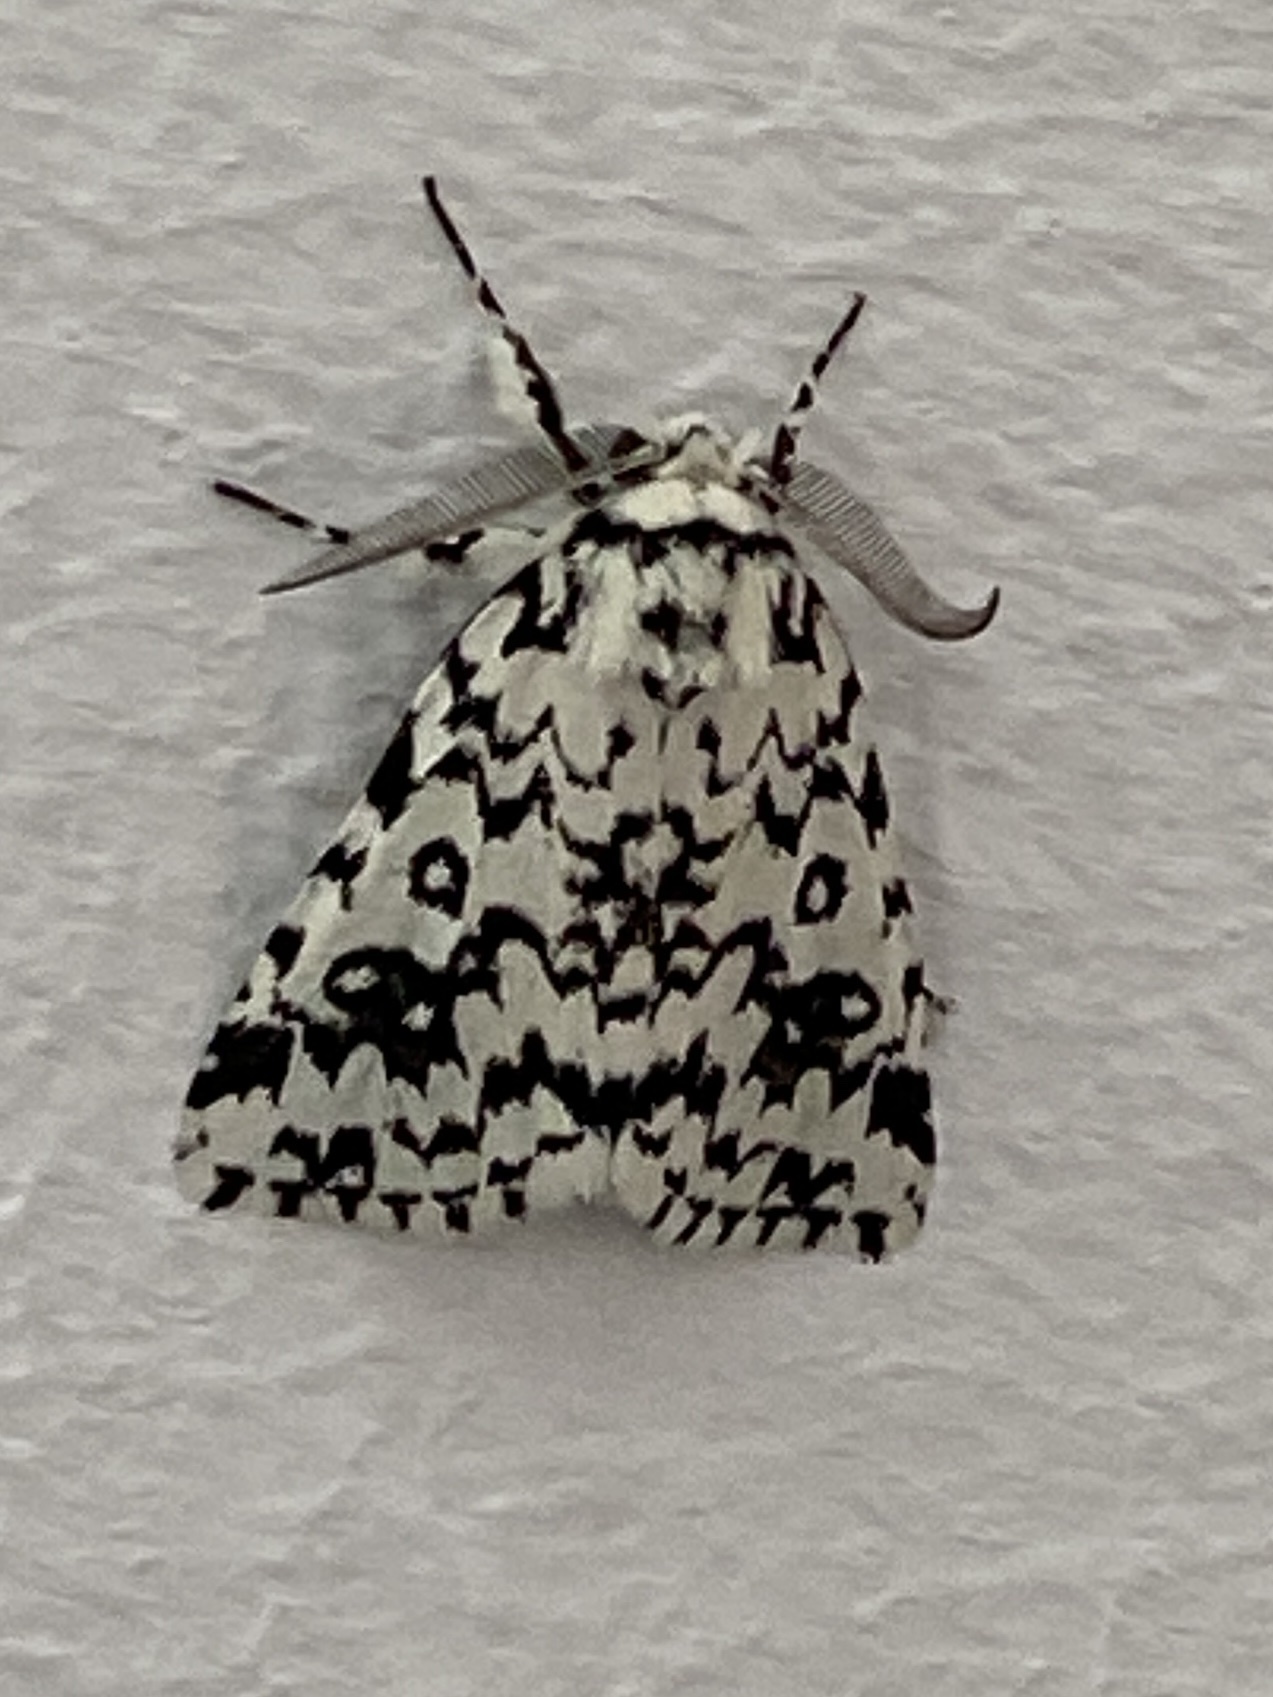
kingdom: Animalia
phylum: Arthropoda
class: Insecta
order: Lepidoptera
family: Erebidae
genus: Dasychira
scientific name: Dasychira octophora
